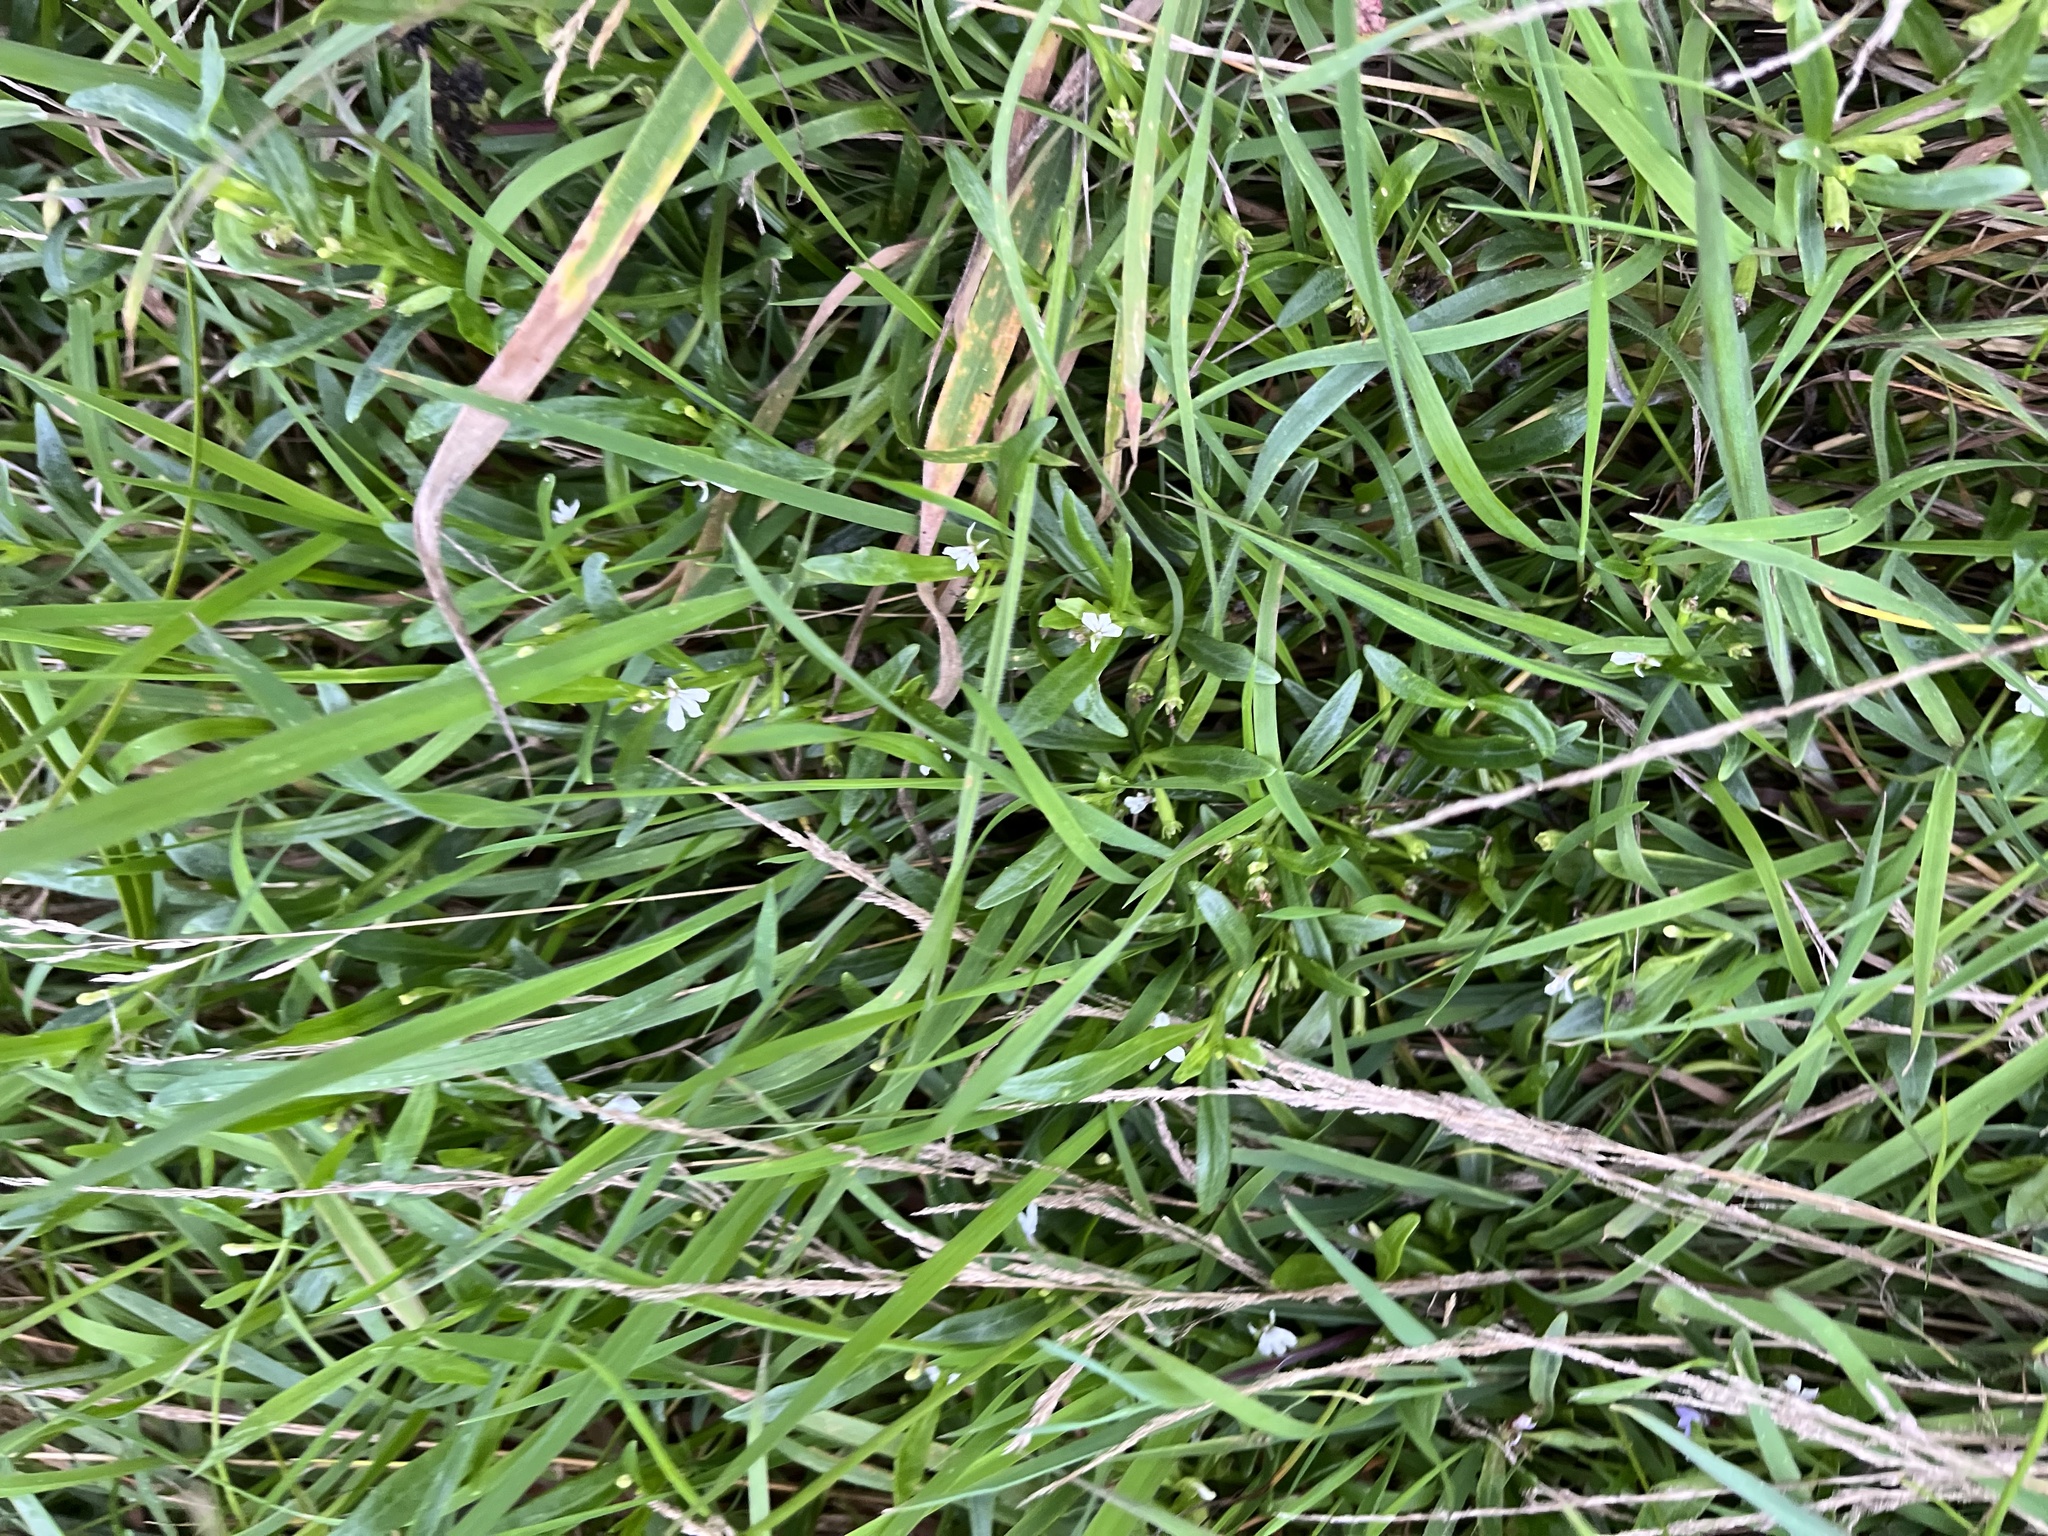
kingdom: Plantae
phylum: Tracheophyta
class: Magnoliopsida
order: Asterales
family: Campanulaceae
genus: Lobelia
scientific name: Lobelia anceps
